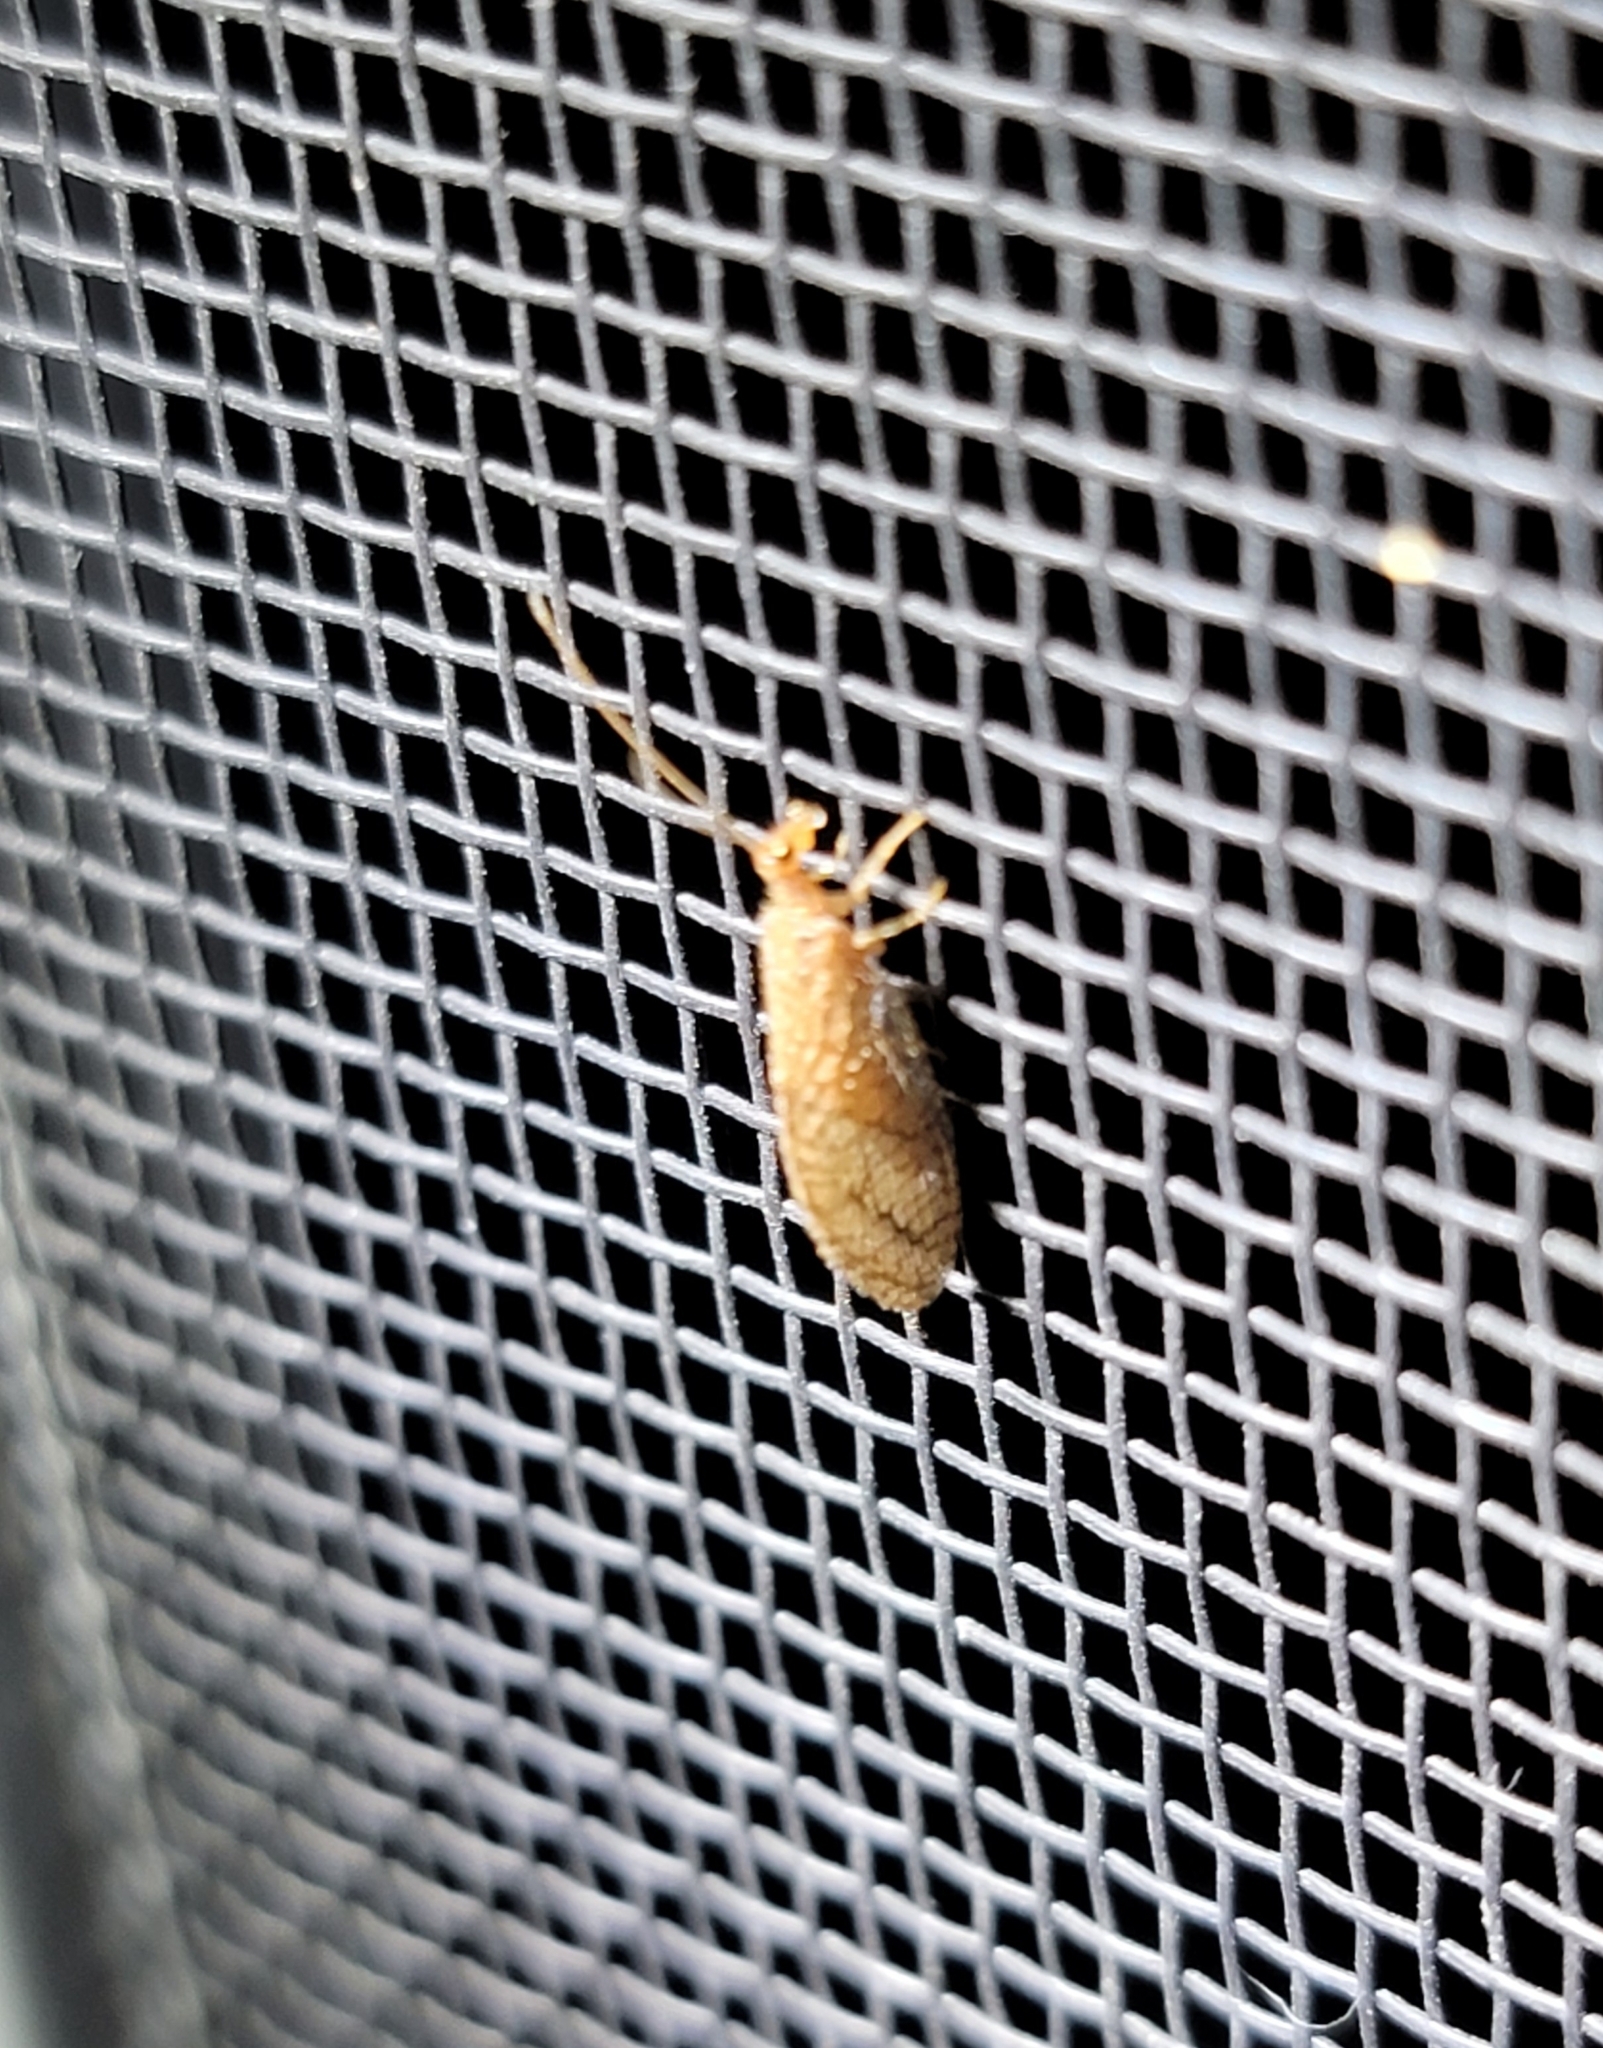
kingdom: Animalia
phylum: Arthropoda
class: Insecta
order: Neuroptera
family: Hemerobiidae
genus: Micromus
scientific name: Micromus posticus
